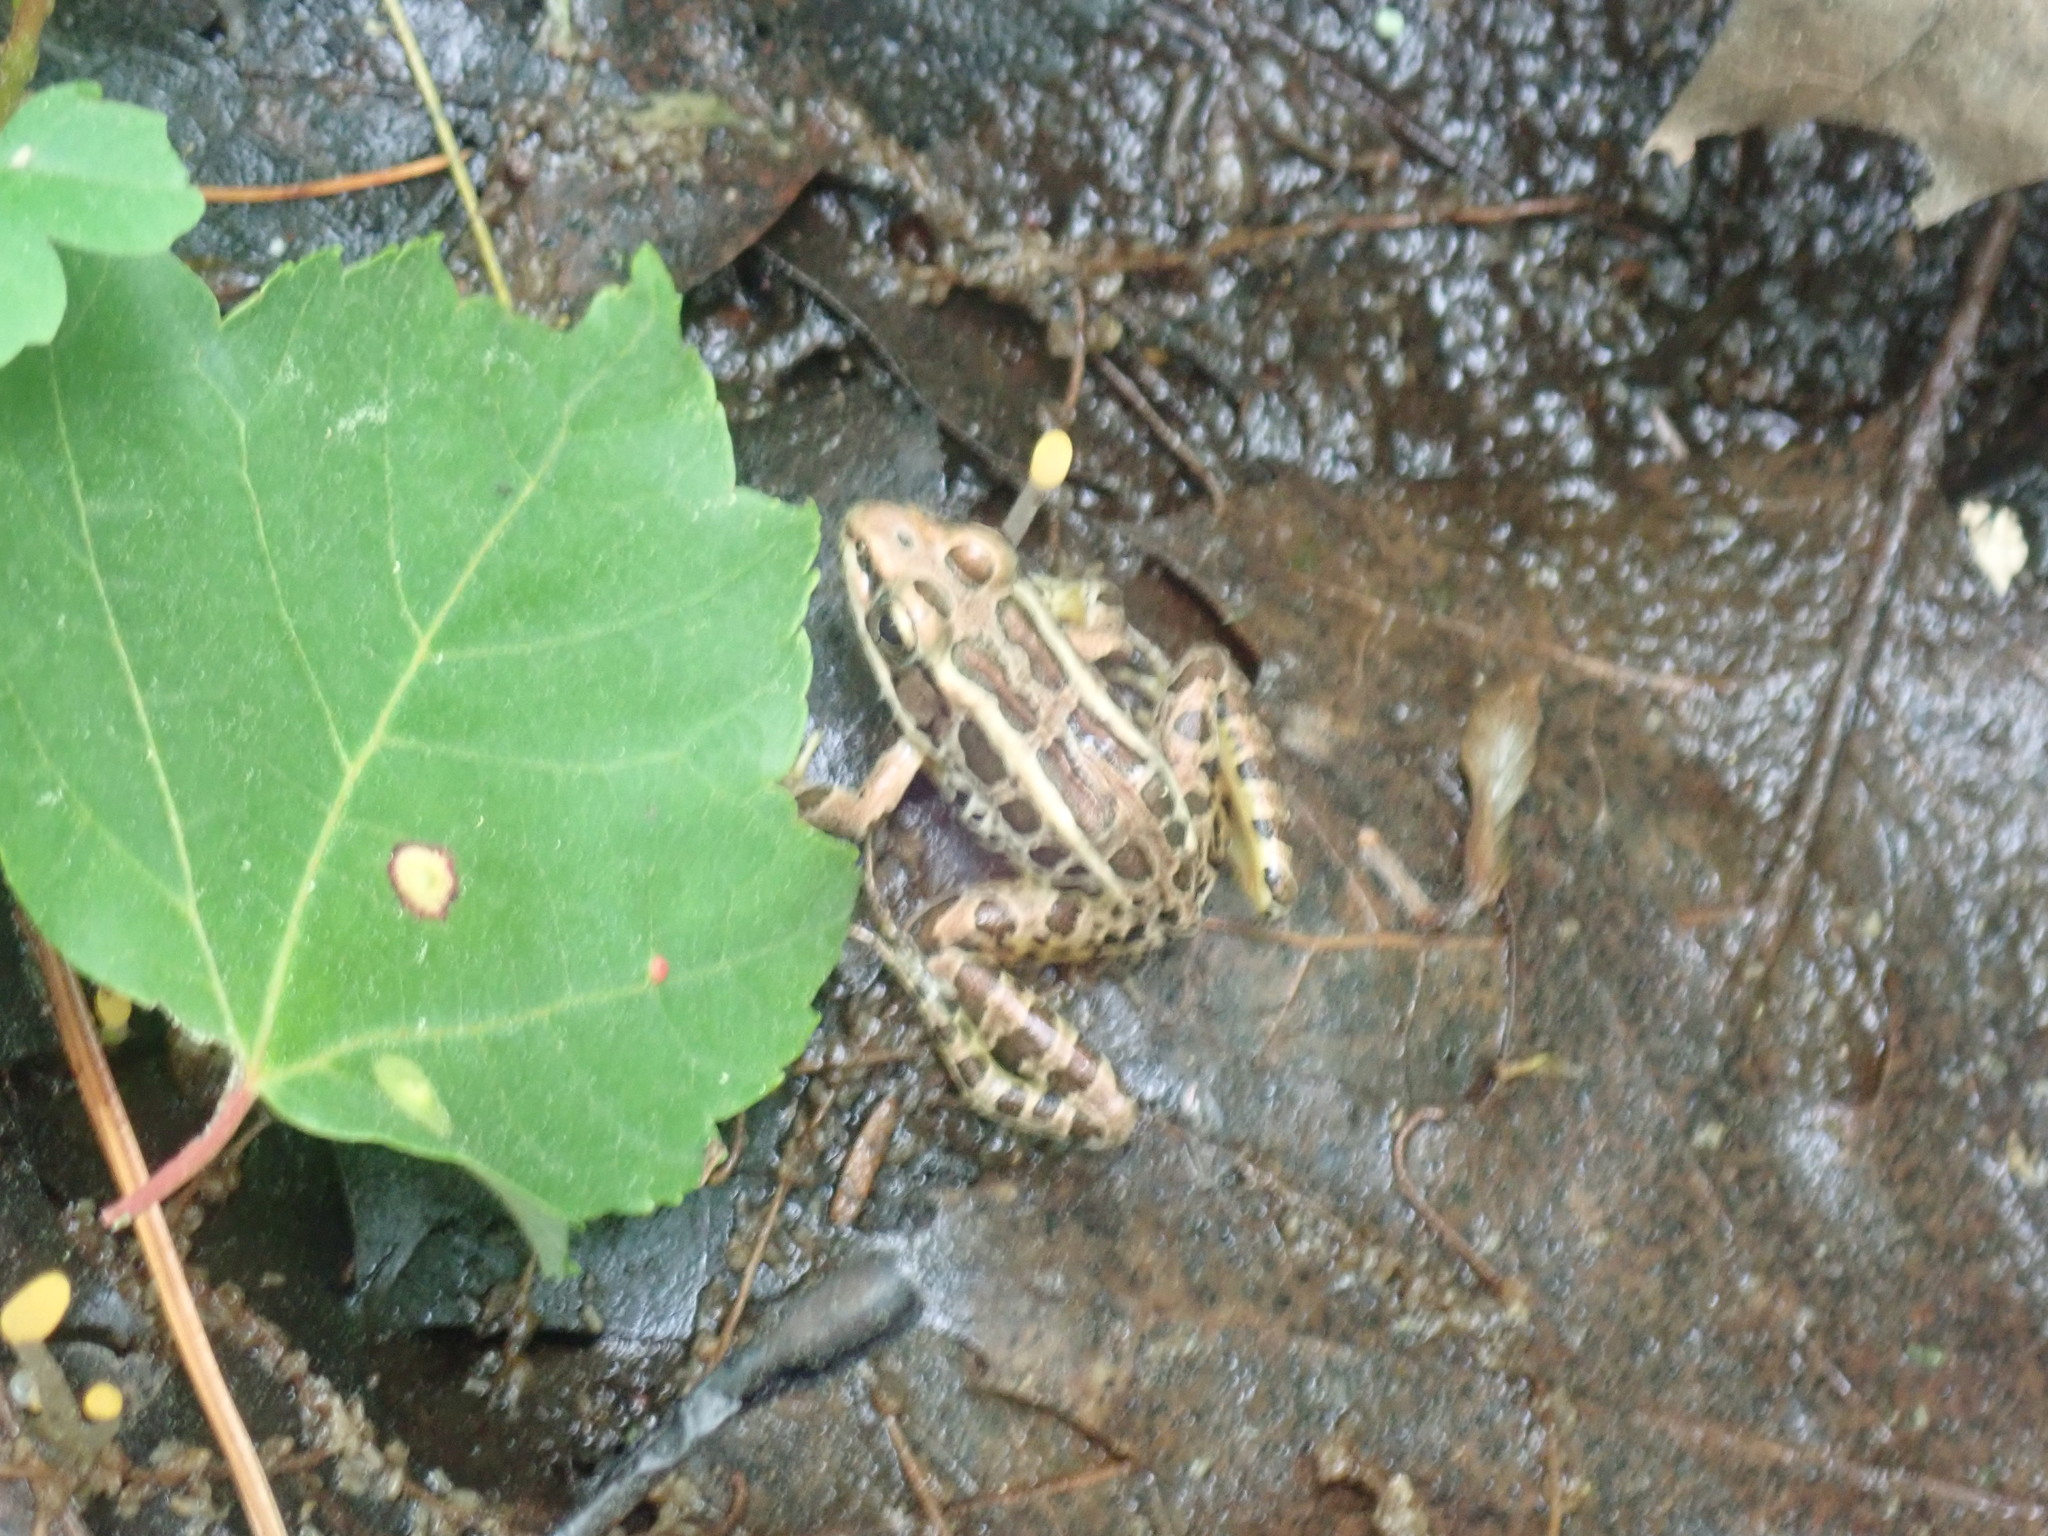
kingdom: Animalia
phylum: Chordata
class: Amphibia
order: Anura
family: Ranidae
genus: Lithobates
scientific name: Lithobates palustris
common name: Pickerel frog
